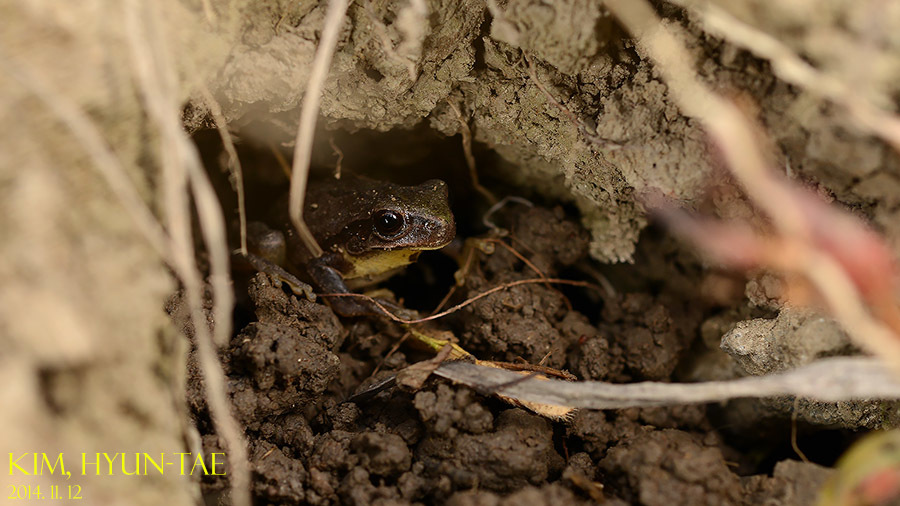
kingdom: Animalia
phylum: Chordata
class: Amphibia
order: Anura
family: Hylidae
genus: Dryophytes
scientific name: Dryophytes immaculatus
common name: North china treefrog
